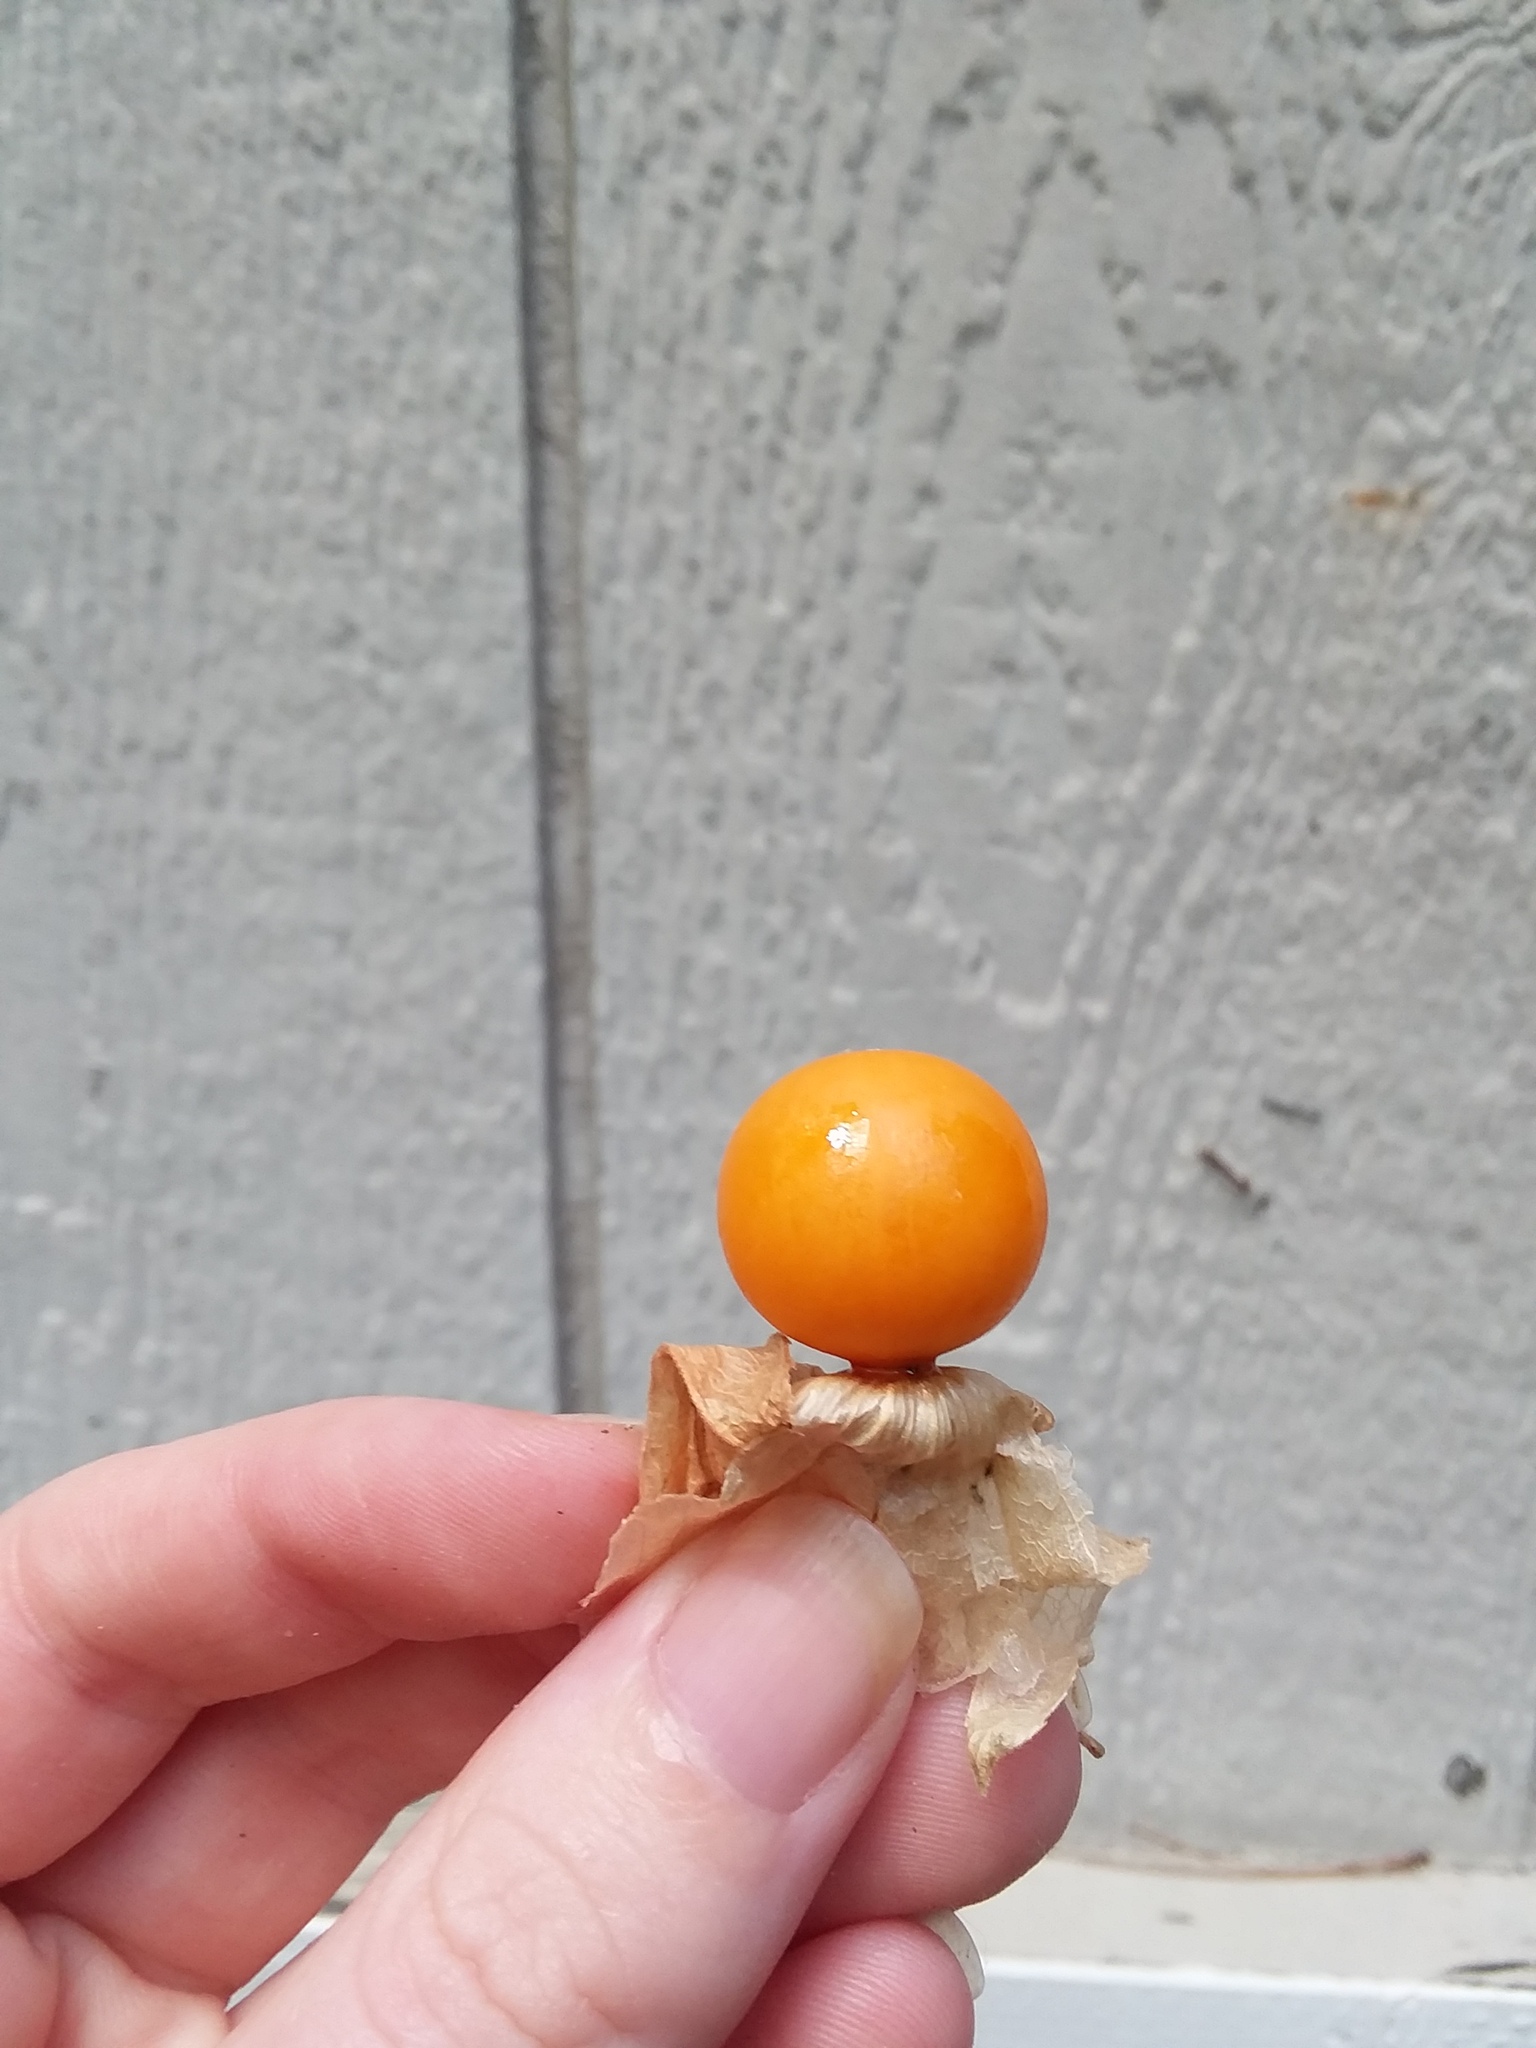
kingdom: Plantae
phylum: Tracheophyta
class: Magnoliopsida
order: Solanales
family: Solanaceae
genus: Physalis
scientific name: Physalis walteri
